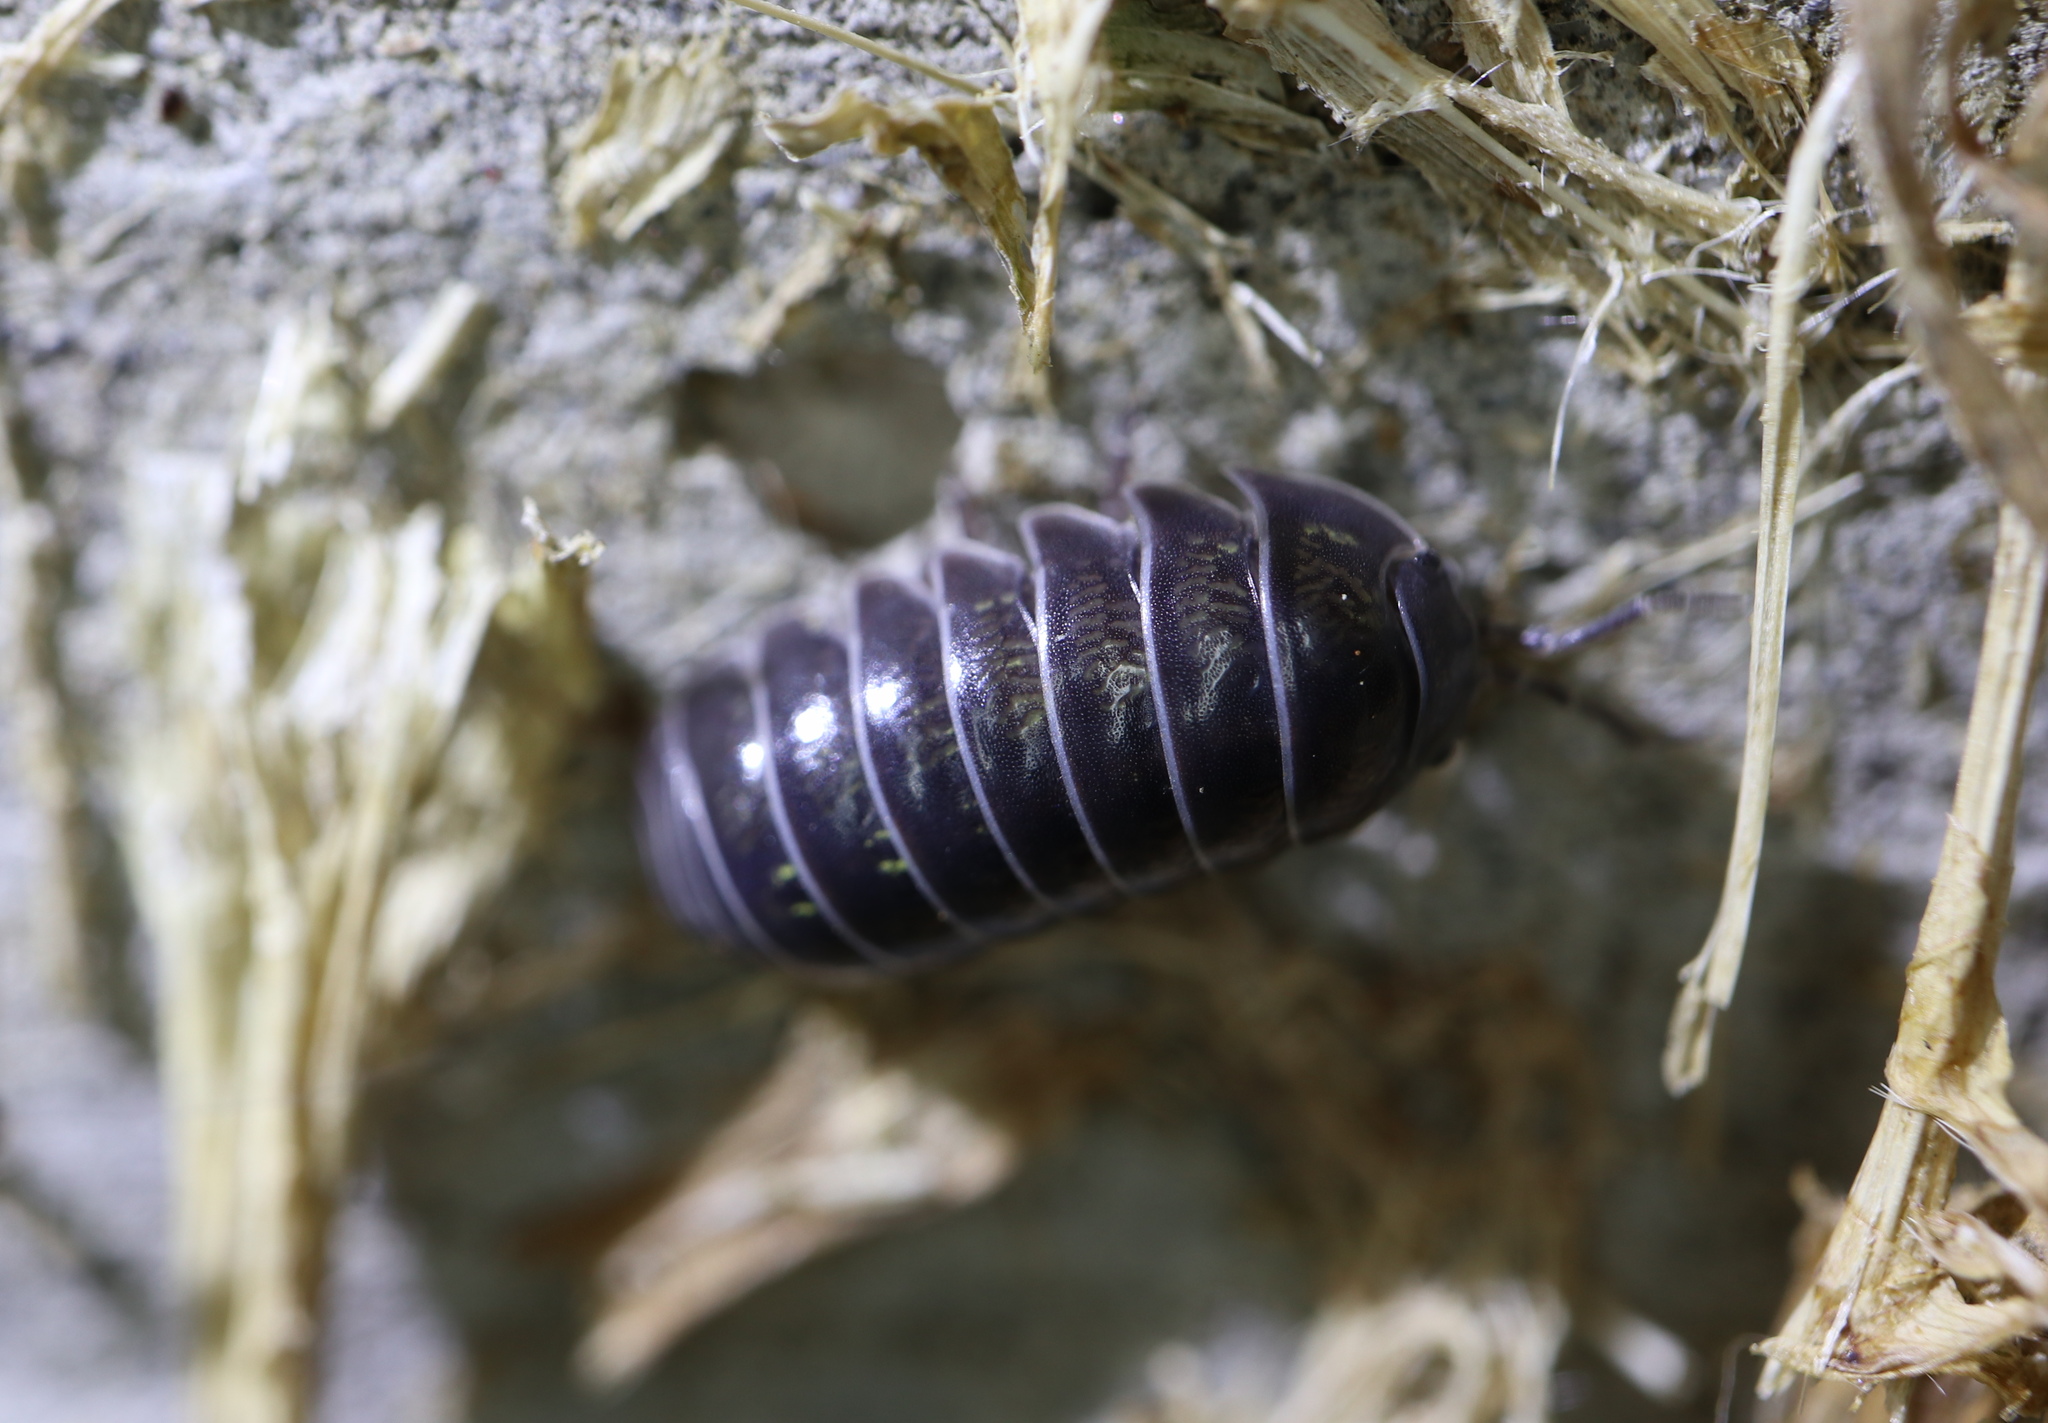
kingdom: Animalia
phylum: Arthropoda
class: Malacostraca
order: Isopoda
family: Armadillidiidae
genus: Armadillidium
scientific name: Armadillidium vulgare
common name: Common pill woodlouse
